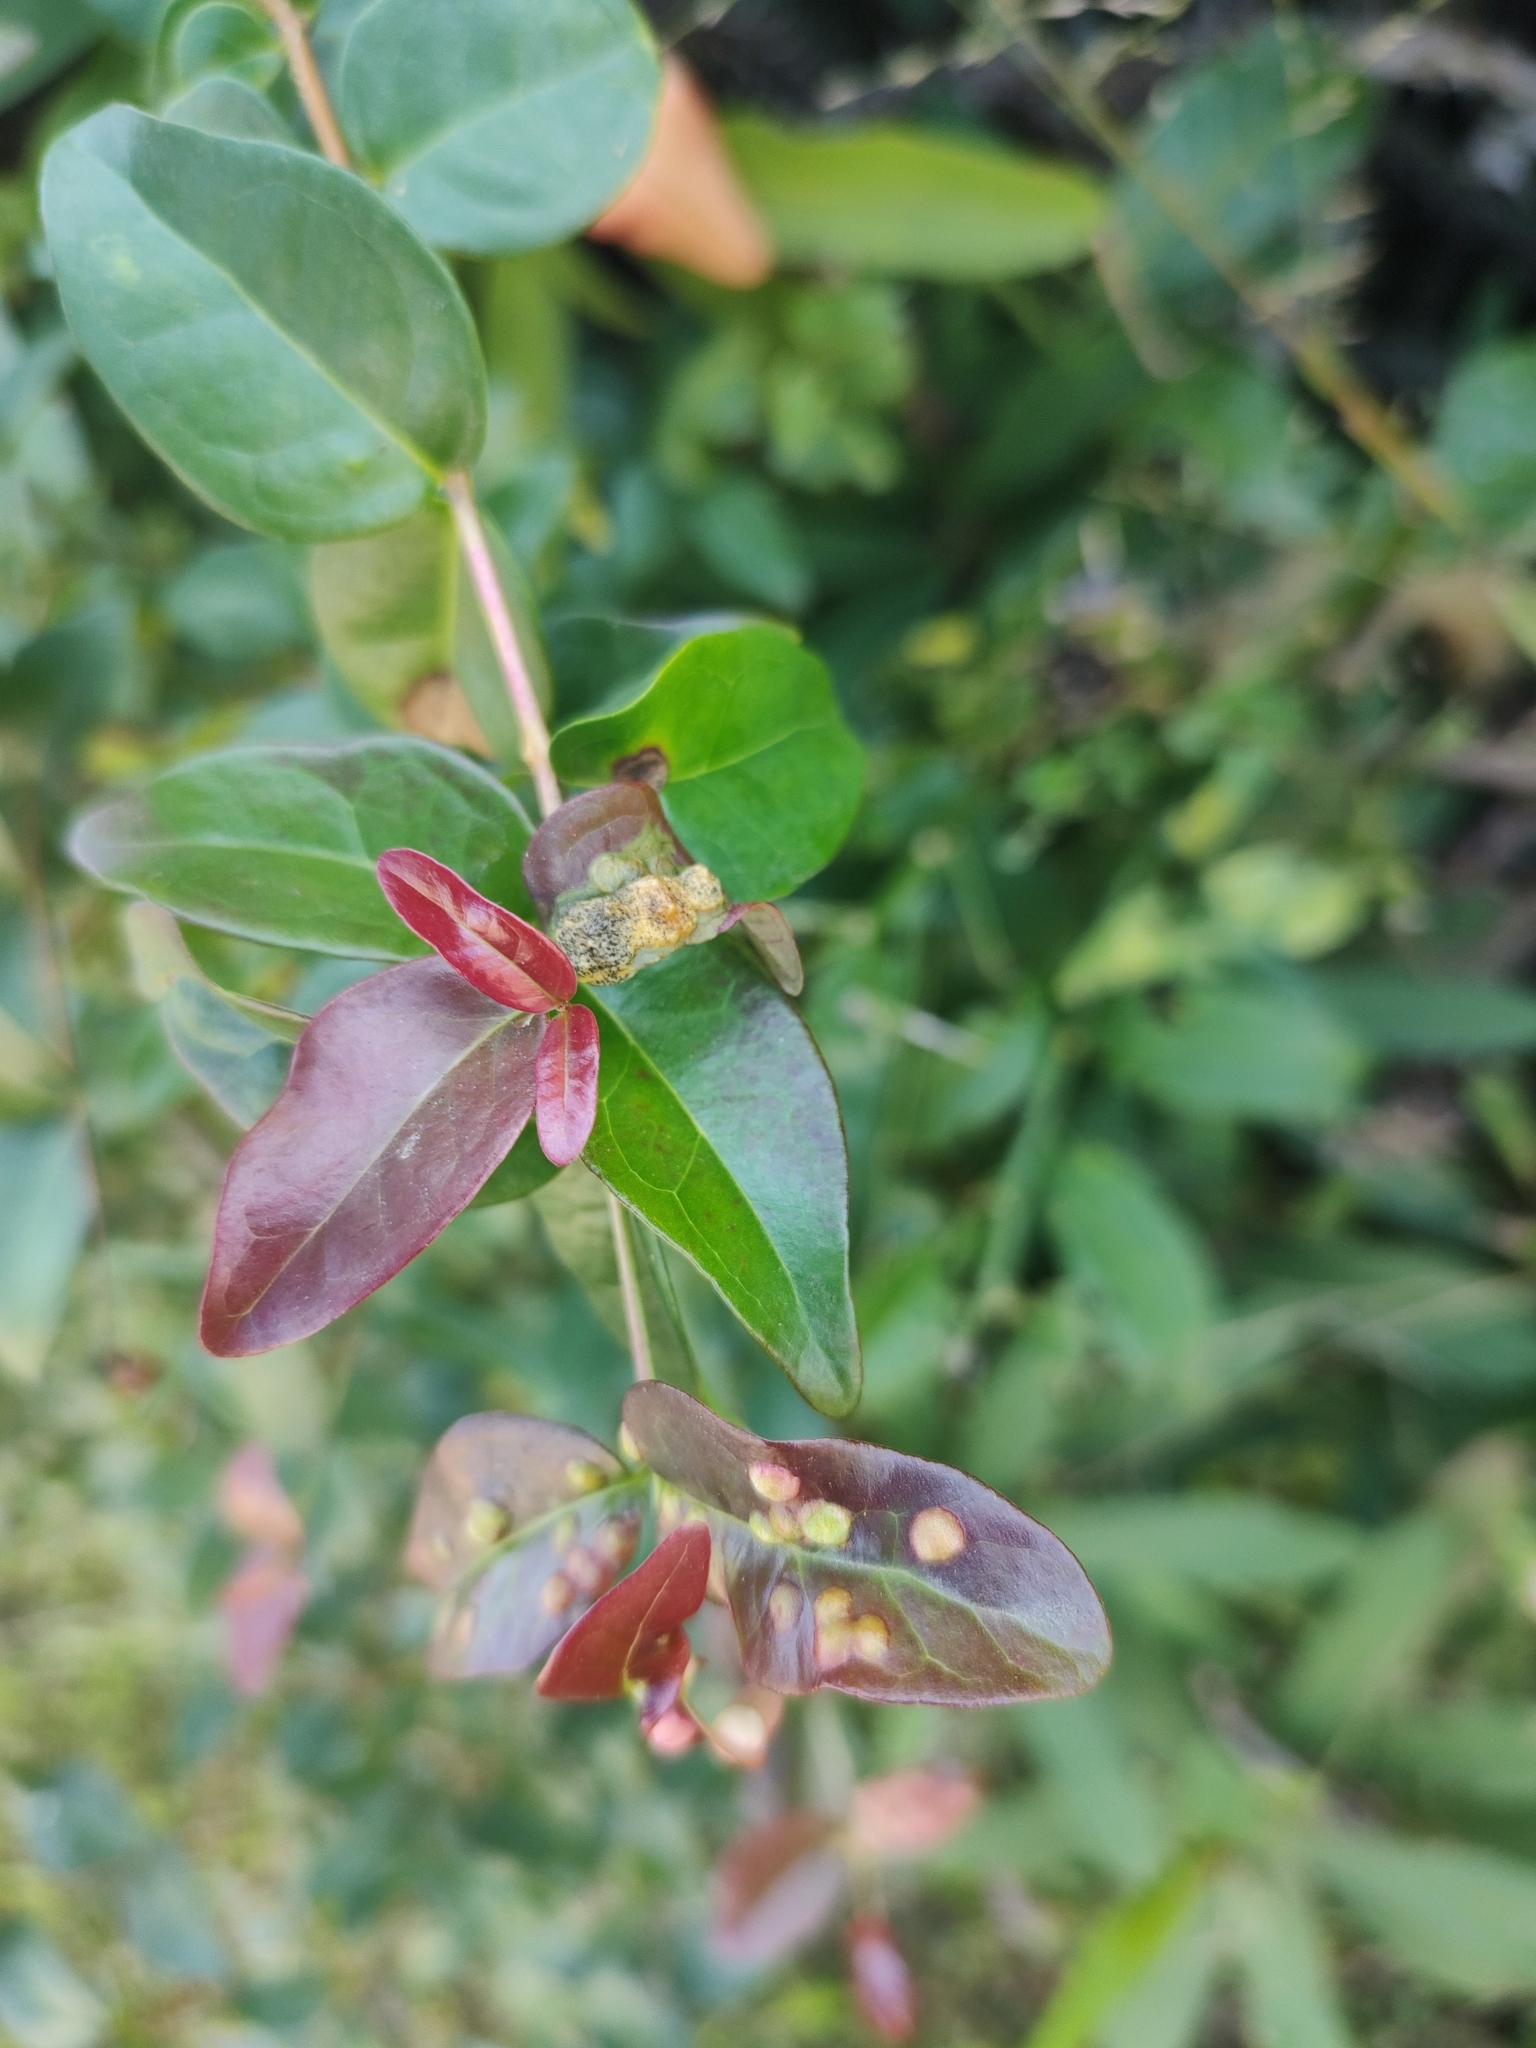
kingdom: Animalia
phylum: Arthropoda
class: Insecta
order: Diptera
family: Cecidomyiidae
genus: Maiamyia
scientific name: Maiamyia dispar
